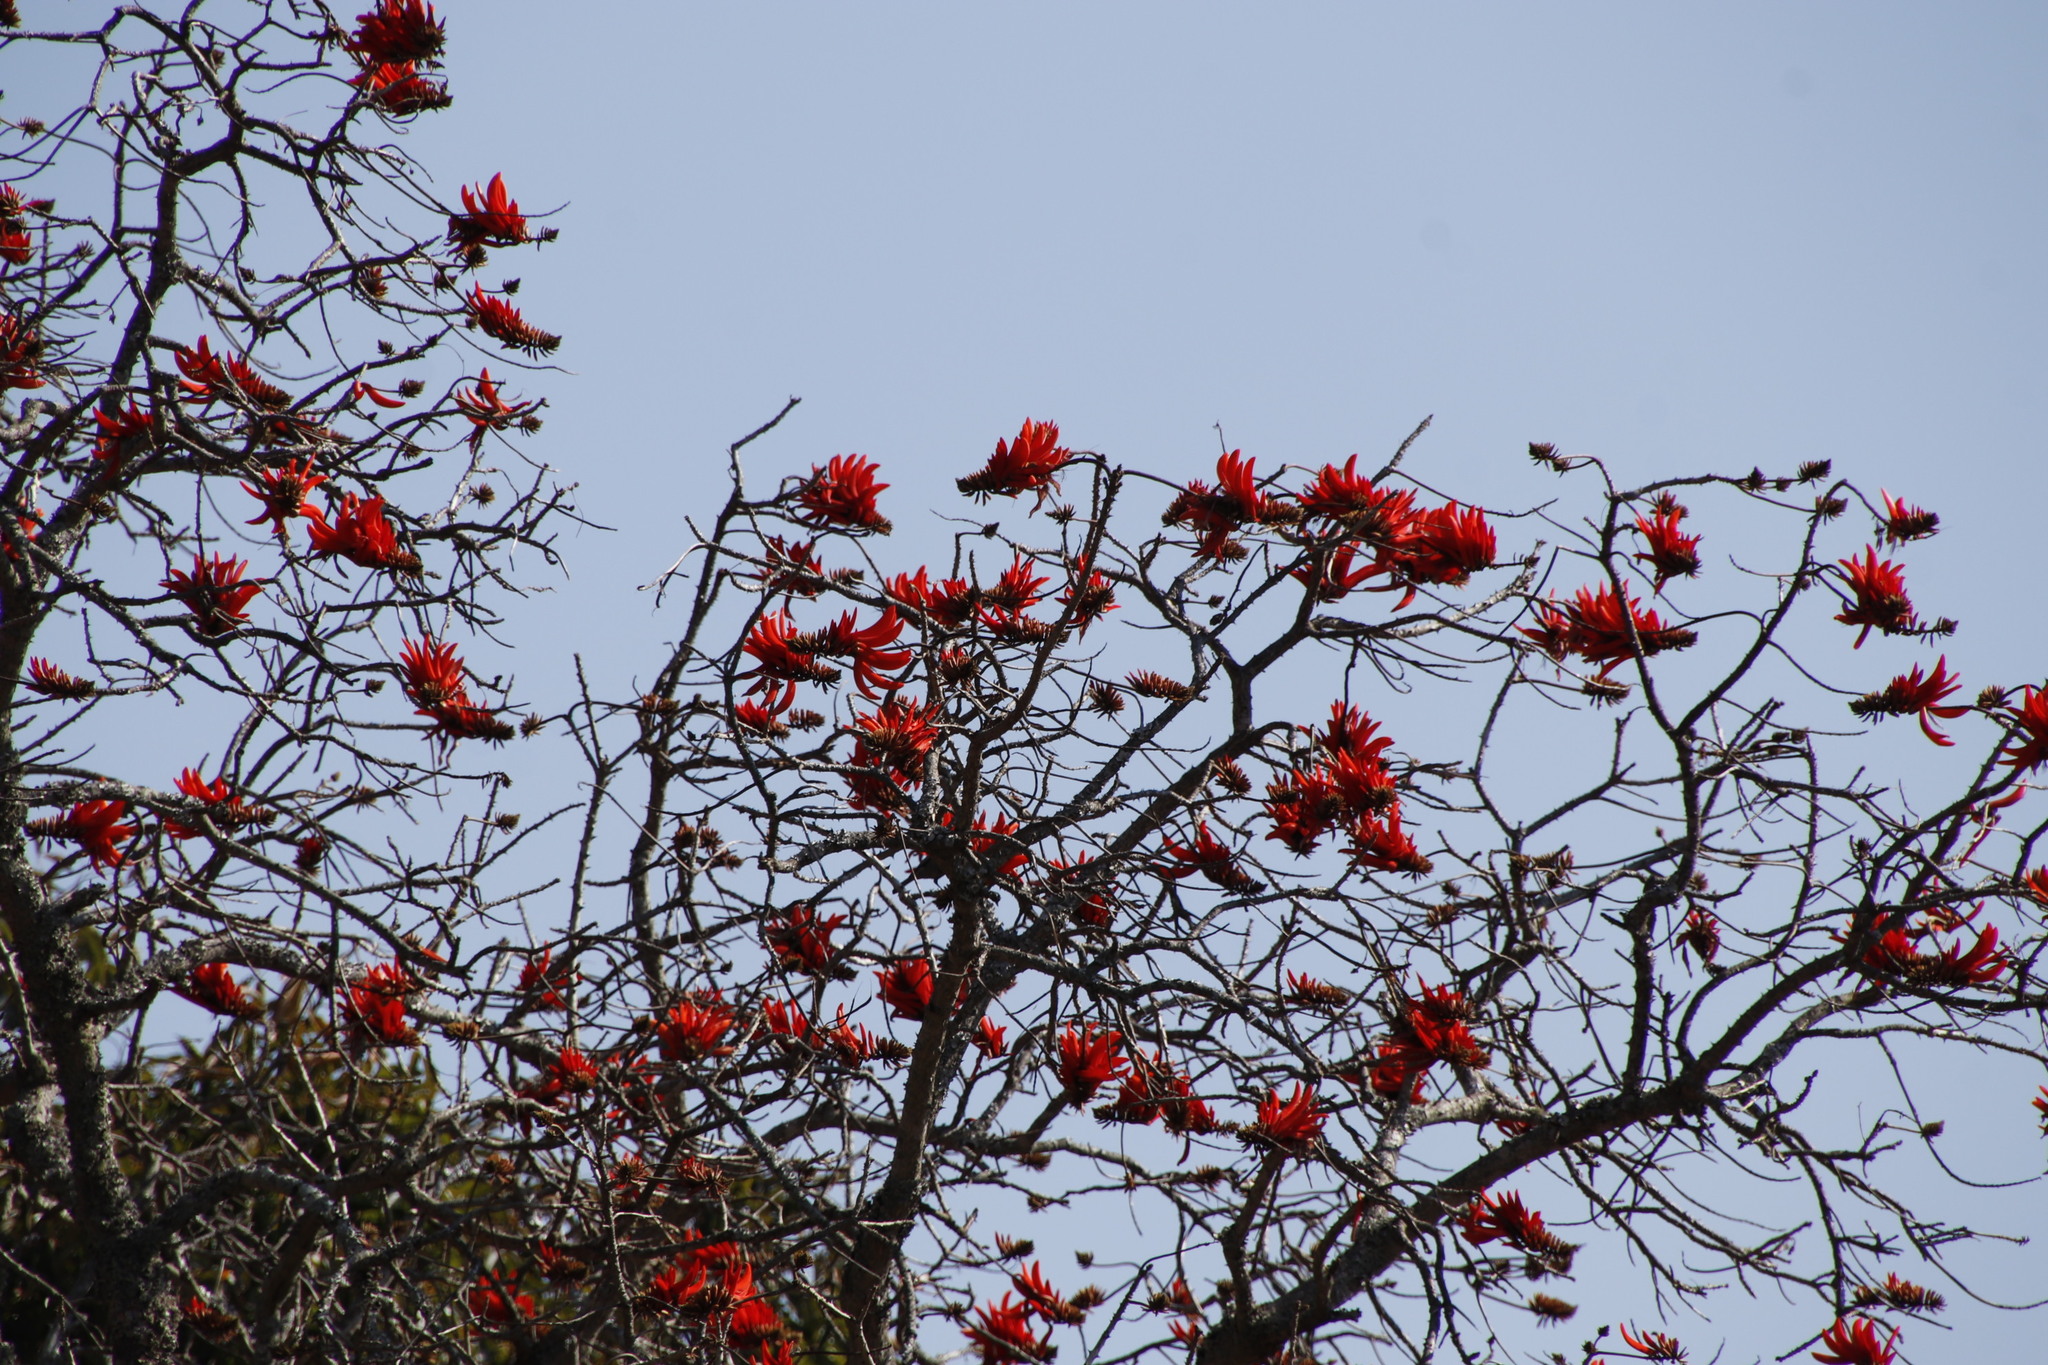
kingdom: Plantae
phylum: Tracheophyta
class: Magnoliopsida
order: Fabales
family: Fabaceae
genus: Erythrina
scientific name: Erythrina lysistemon
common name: Common coral tree
